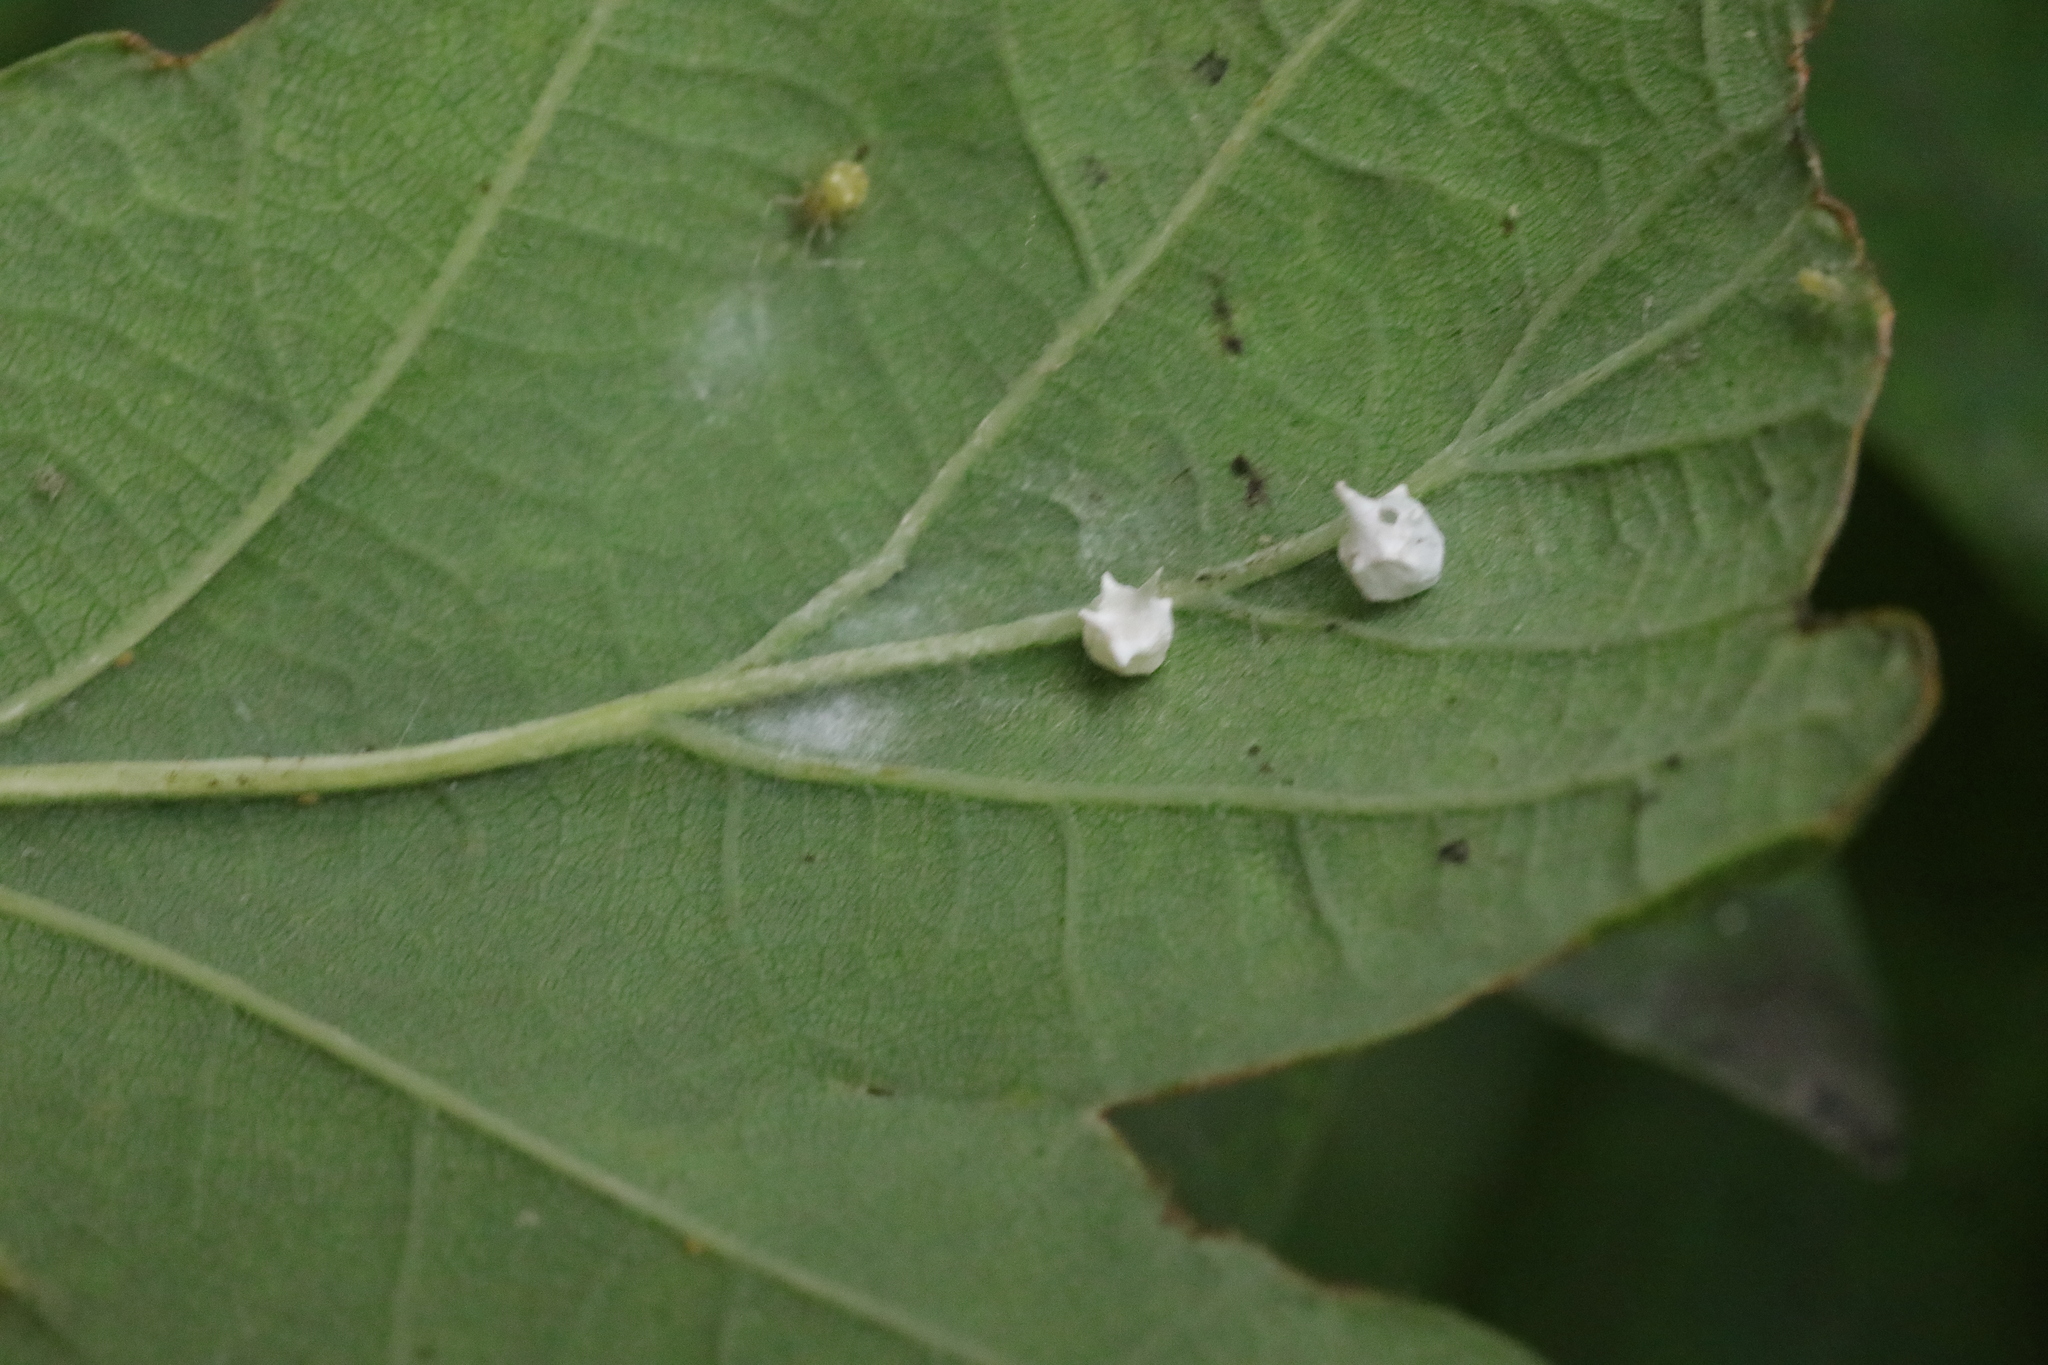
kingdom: Animalia
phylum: Arthropoda
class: Arachnida
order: Araneae
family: Theridiidae
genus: Paidiscura
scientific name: Paidiscura pallens
